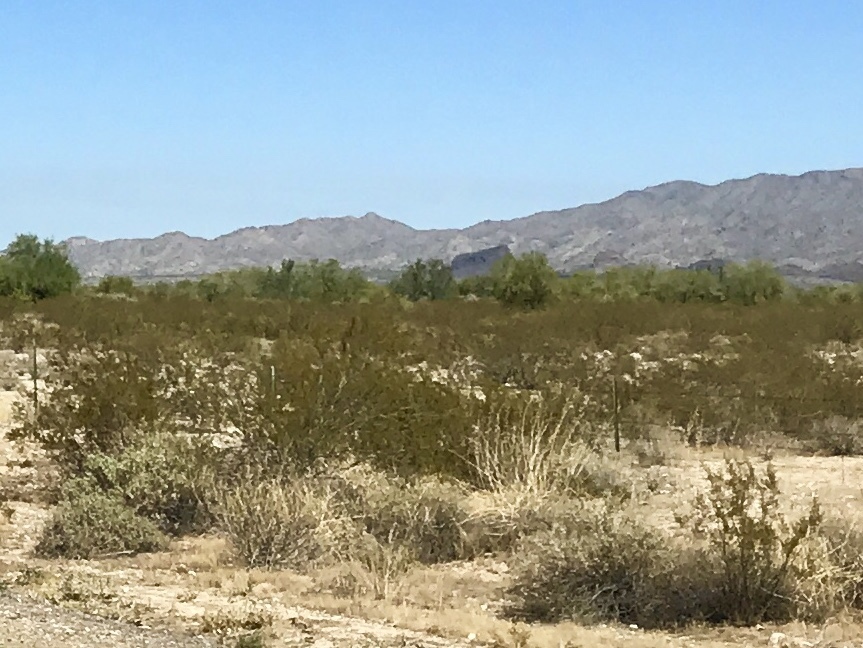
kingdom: Plantae
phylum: Tracheophyta
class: Magnoliopsida
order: Zygophyllales
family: Zygophyllaceae
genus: Larrea
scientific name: Larrea tridentata
